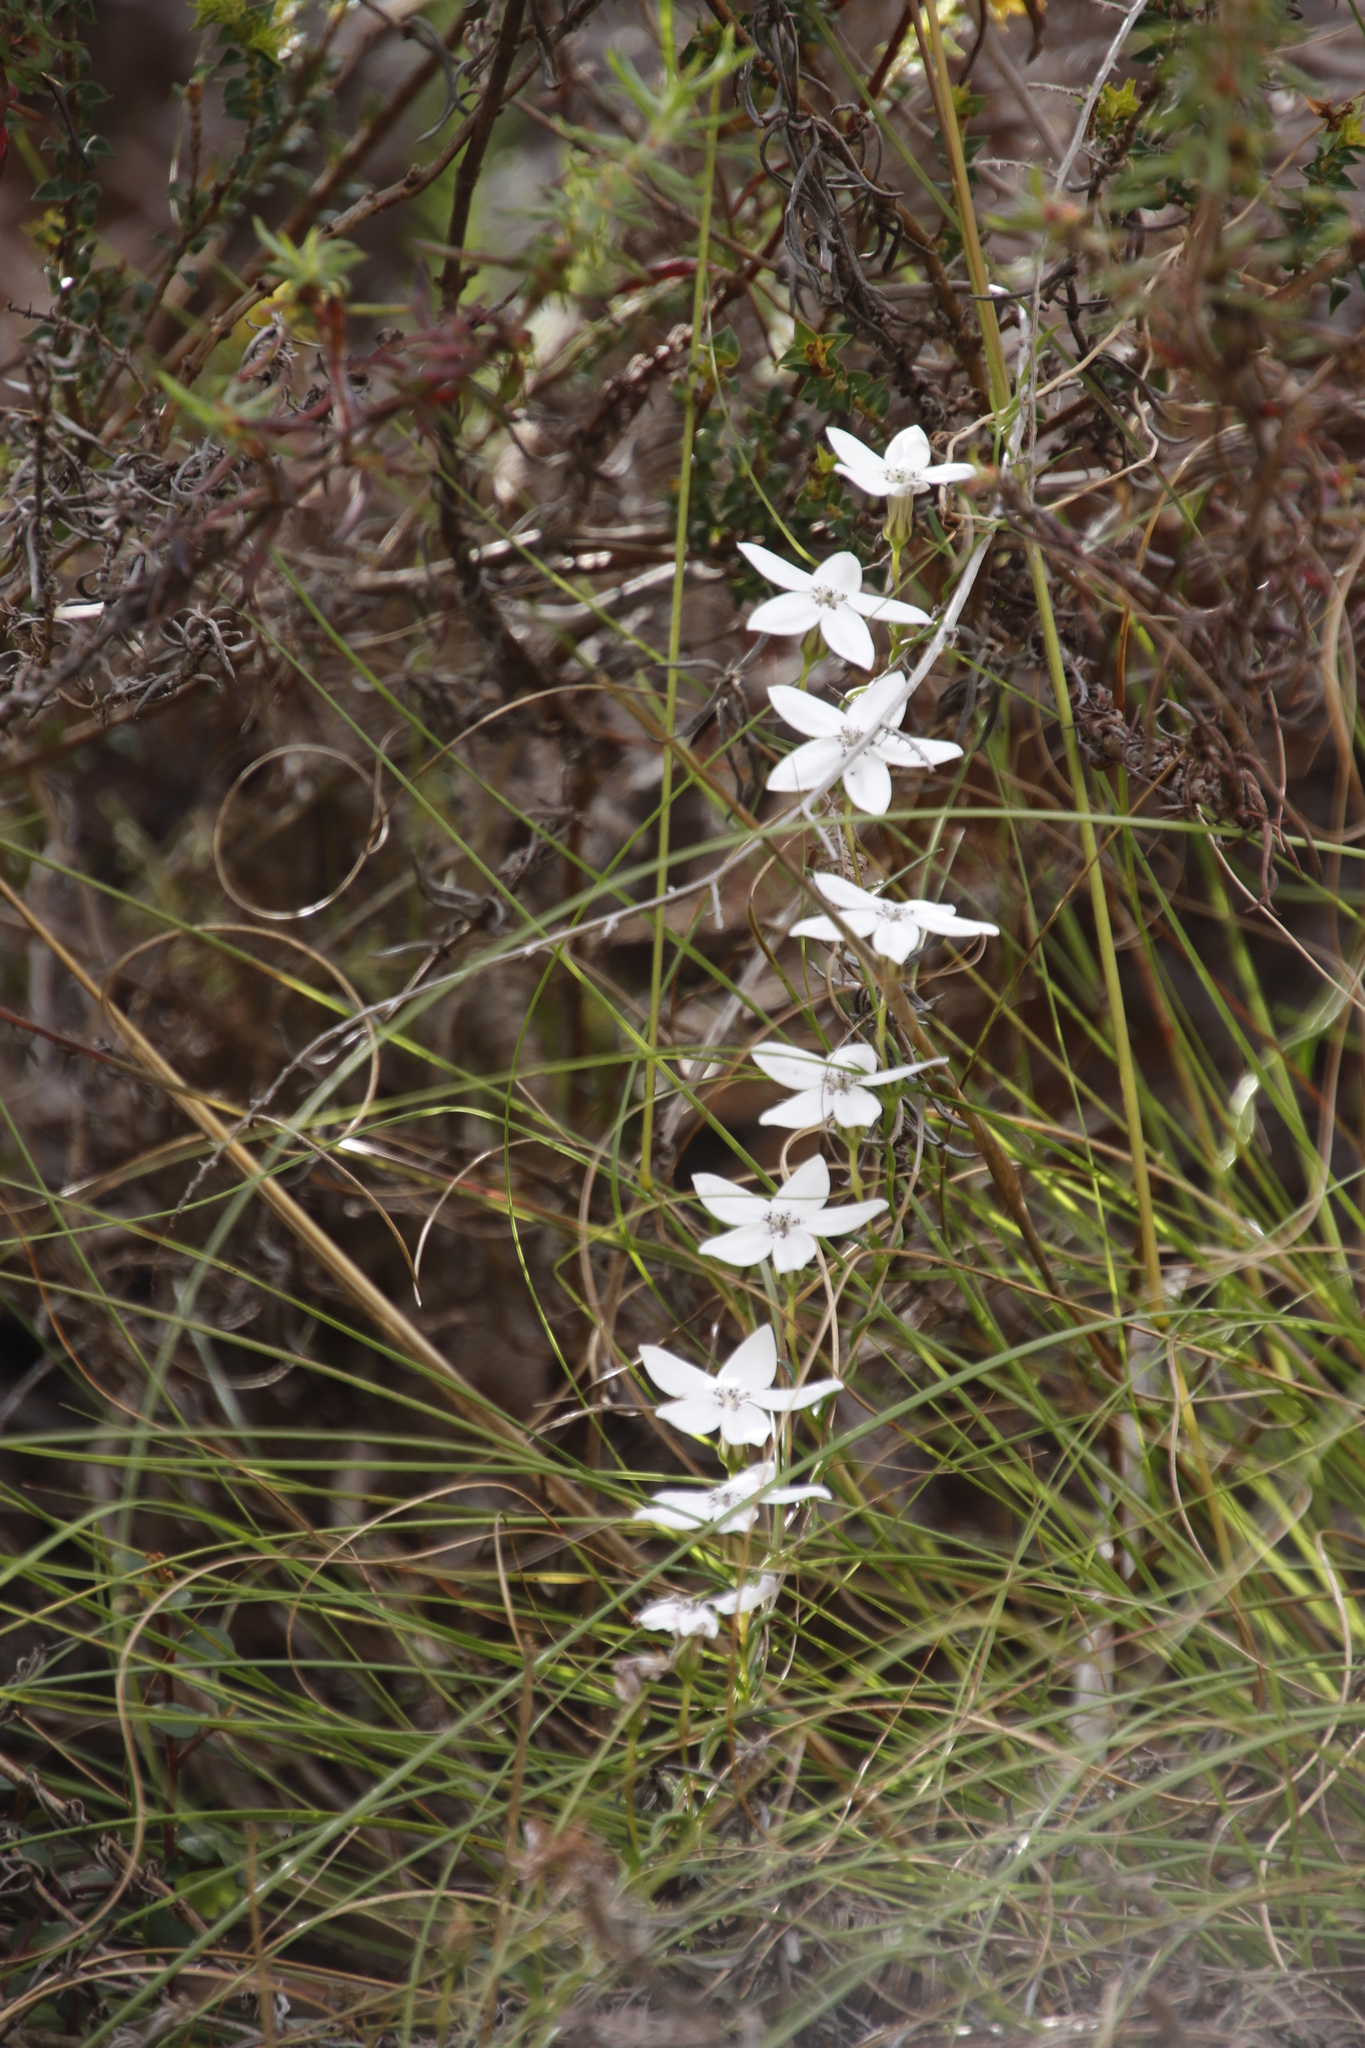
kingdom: Plantae
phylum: Tracheophyta
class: Magnoliopsida
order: Asterales
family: Campanulaceae
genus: Cyphia
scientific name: Cyphia volubilis
